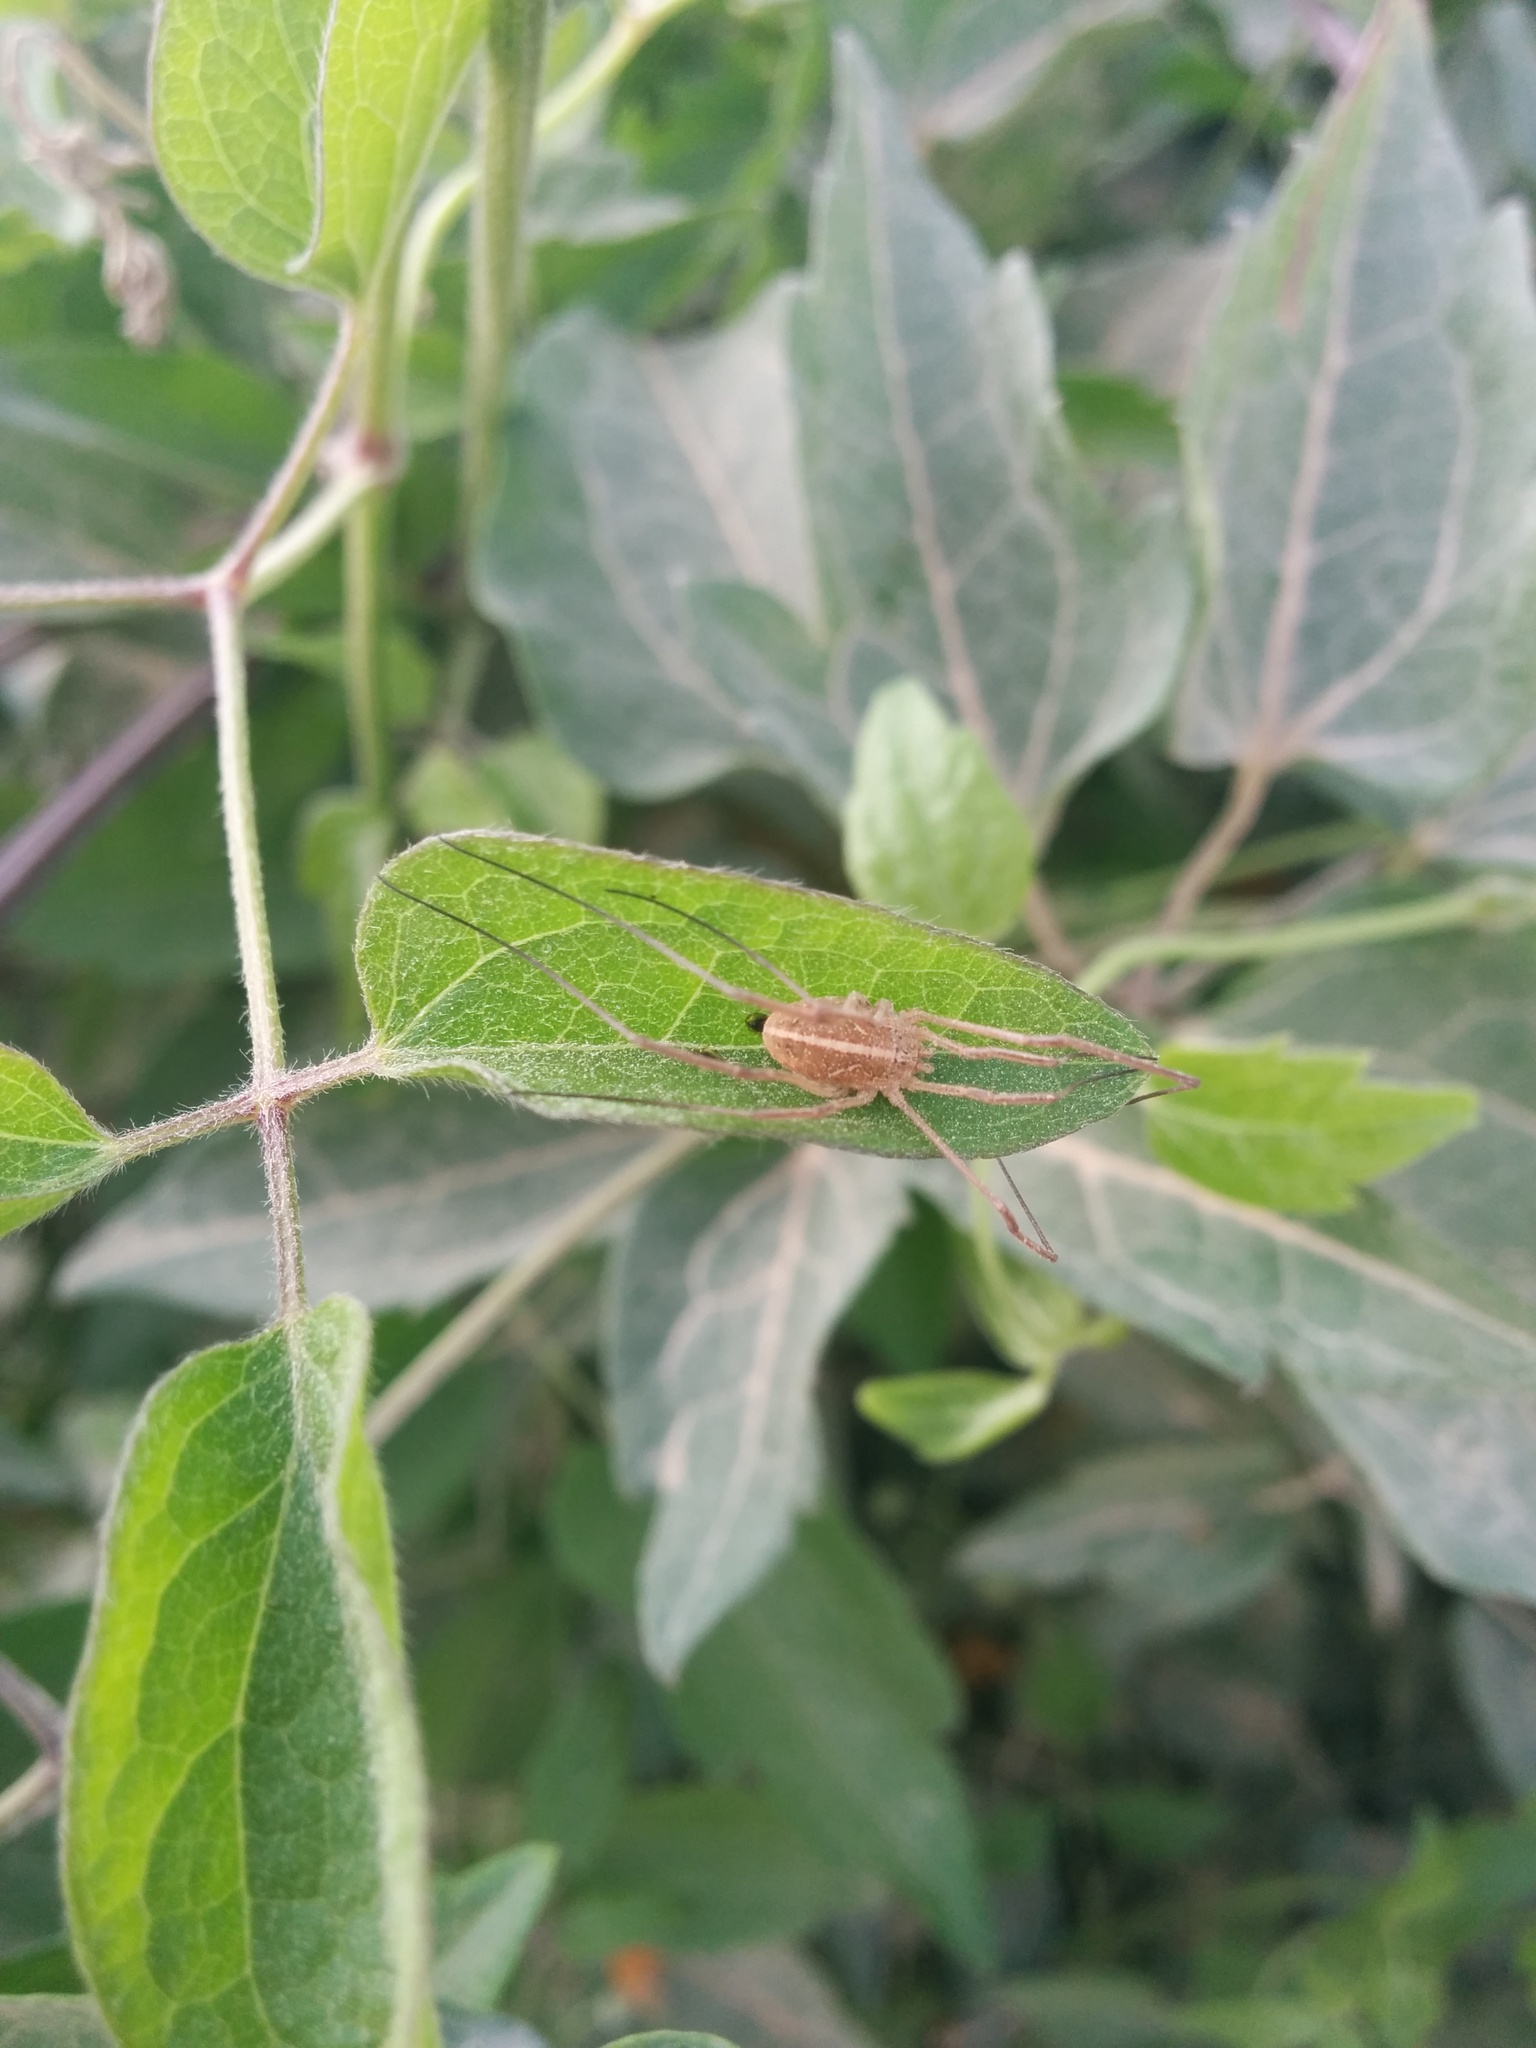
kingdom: Animalia
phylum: Arthropoda
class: Arachnida
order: Opiliones
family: Phalangiidae
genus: Metaphalangium
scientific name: Metaphalangium cirtanum
